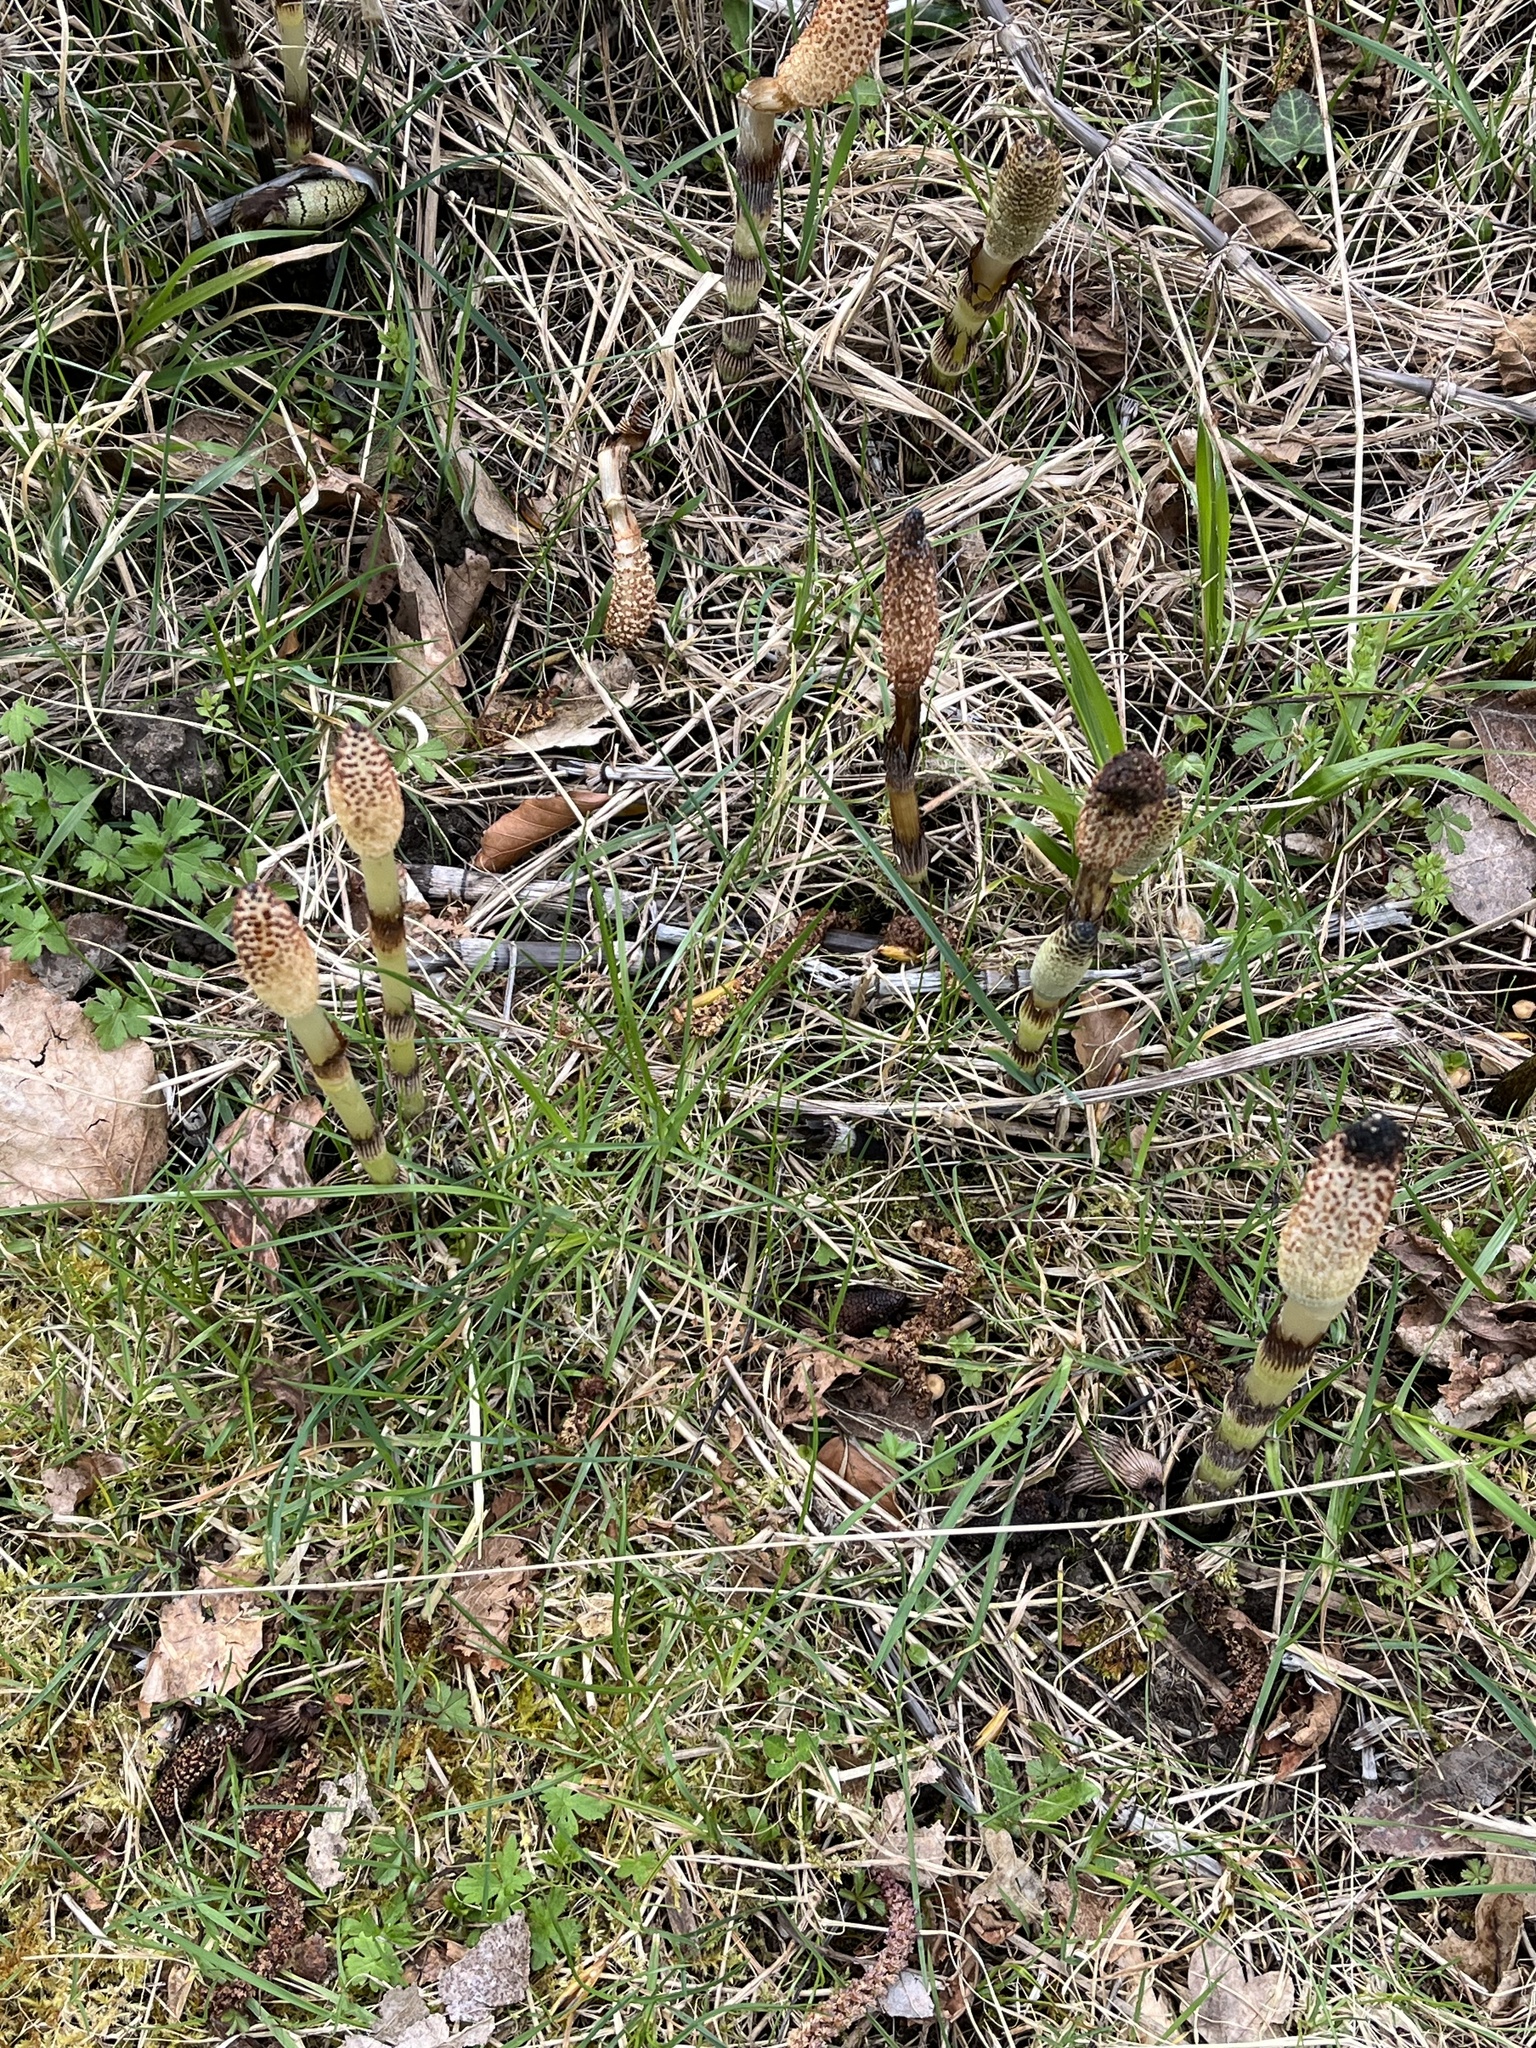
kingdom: Plantae
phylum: Tracheophyta
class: Polypodiopsida
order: Equisetales
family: Equisetaceae
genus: Equisetum
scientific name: Equisetum telmateia
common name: Great horsetail
